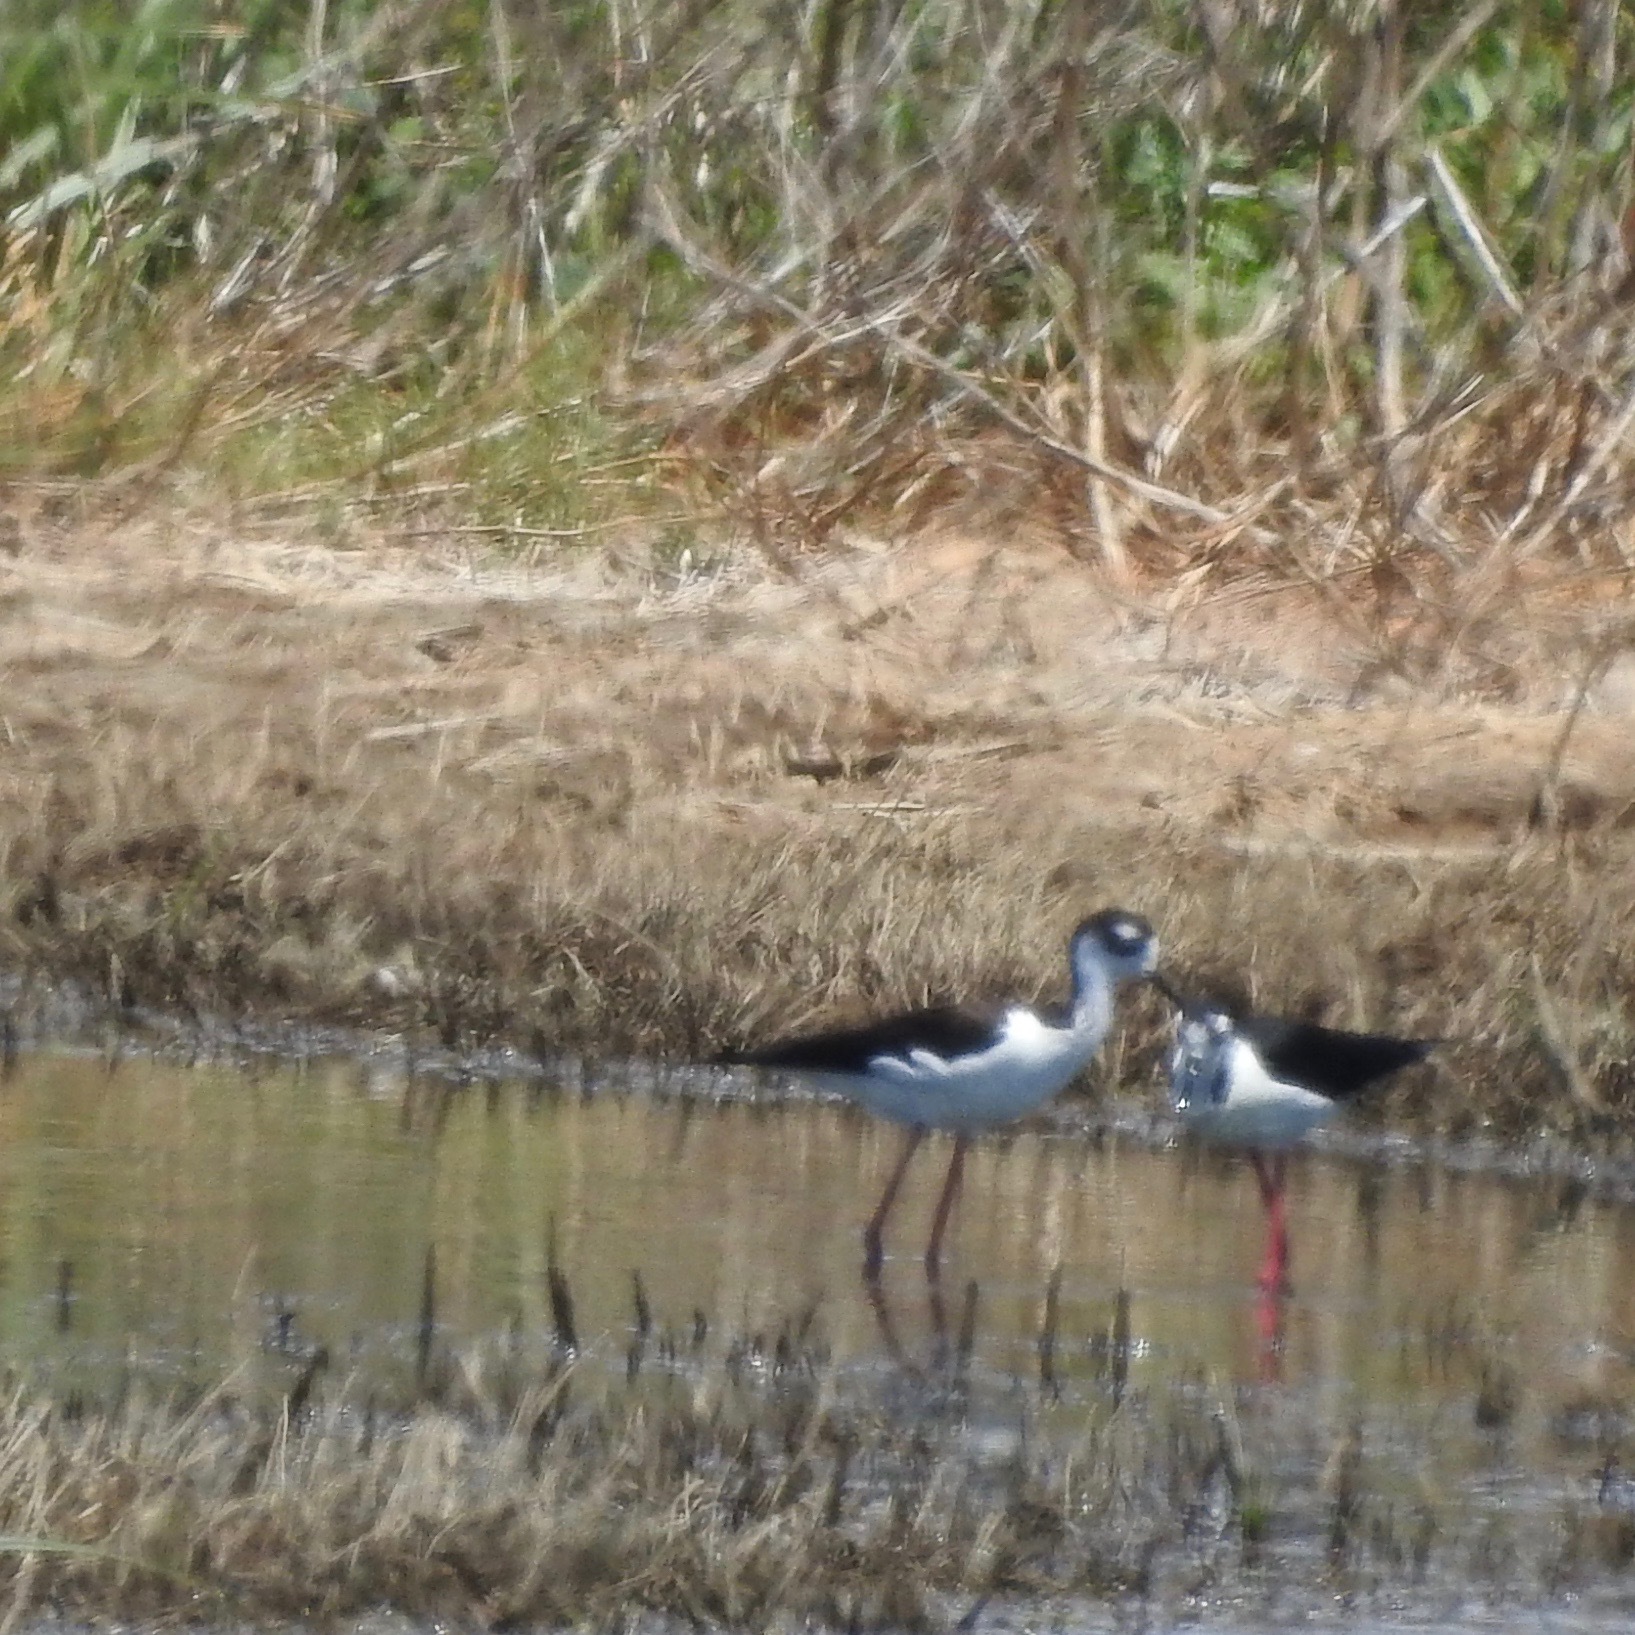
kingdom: Animalia
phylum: Chordata
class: Aves
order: Charadriiformes
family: Recurvirostridae
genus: Himantopus
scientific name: Himantopus mexicanus
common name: Black-necked stilt
